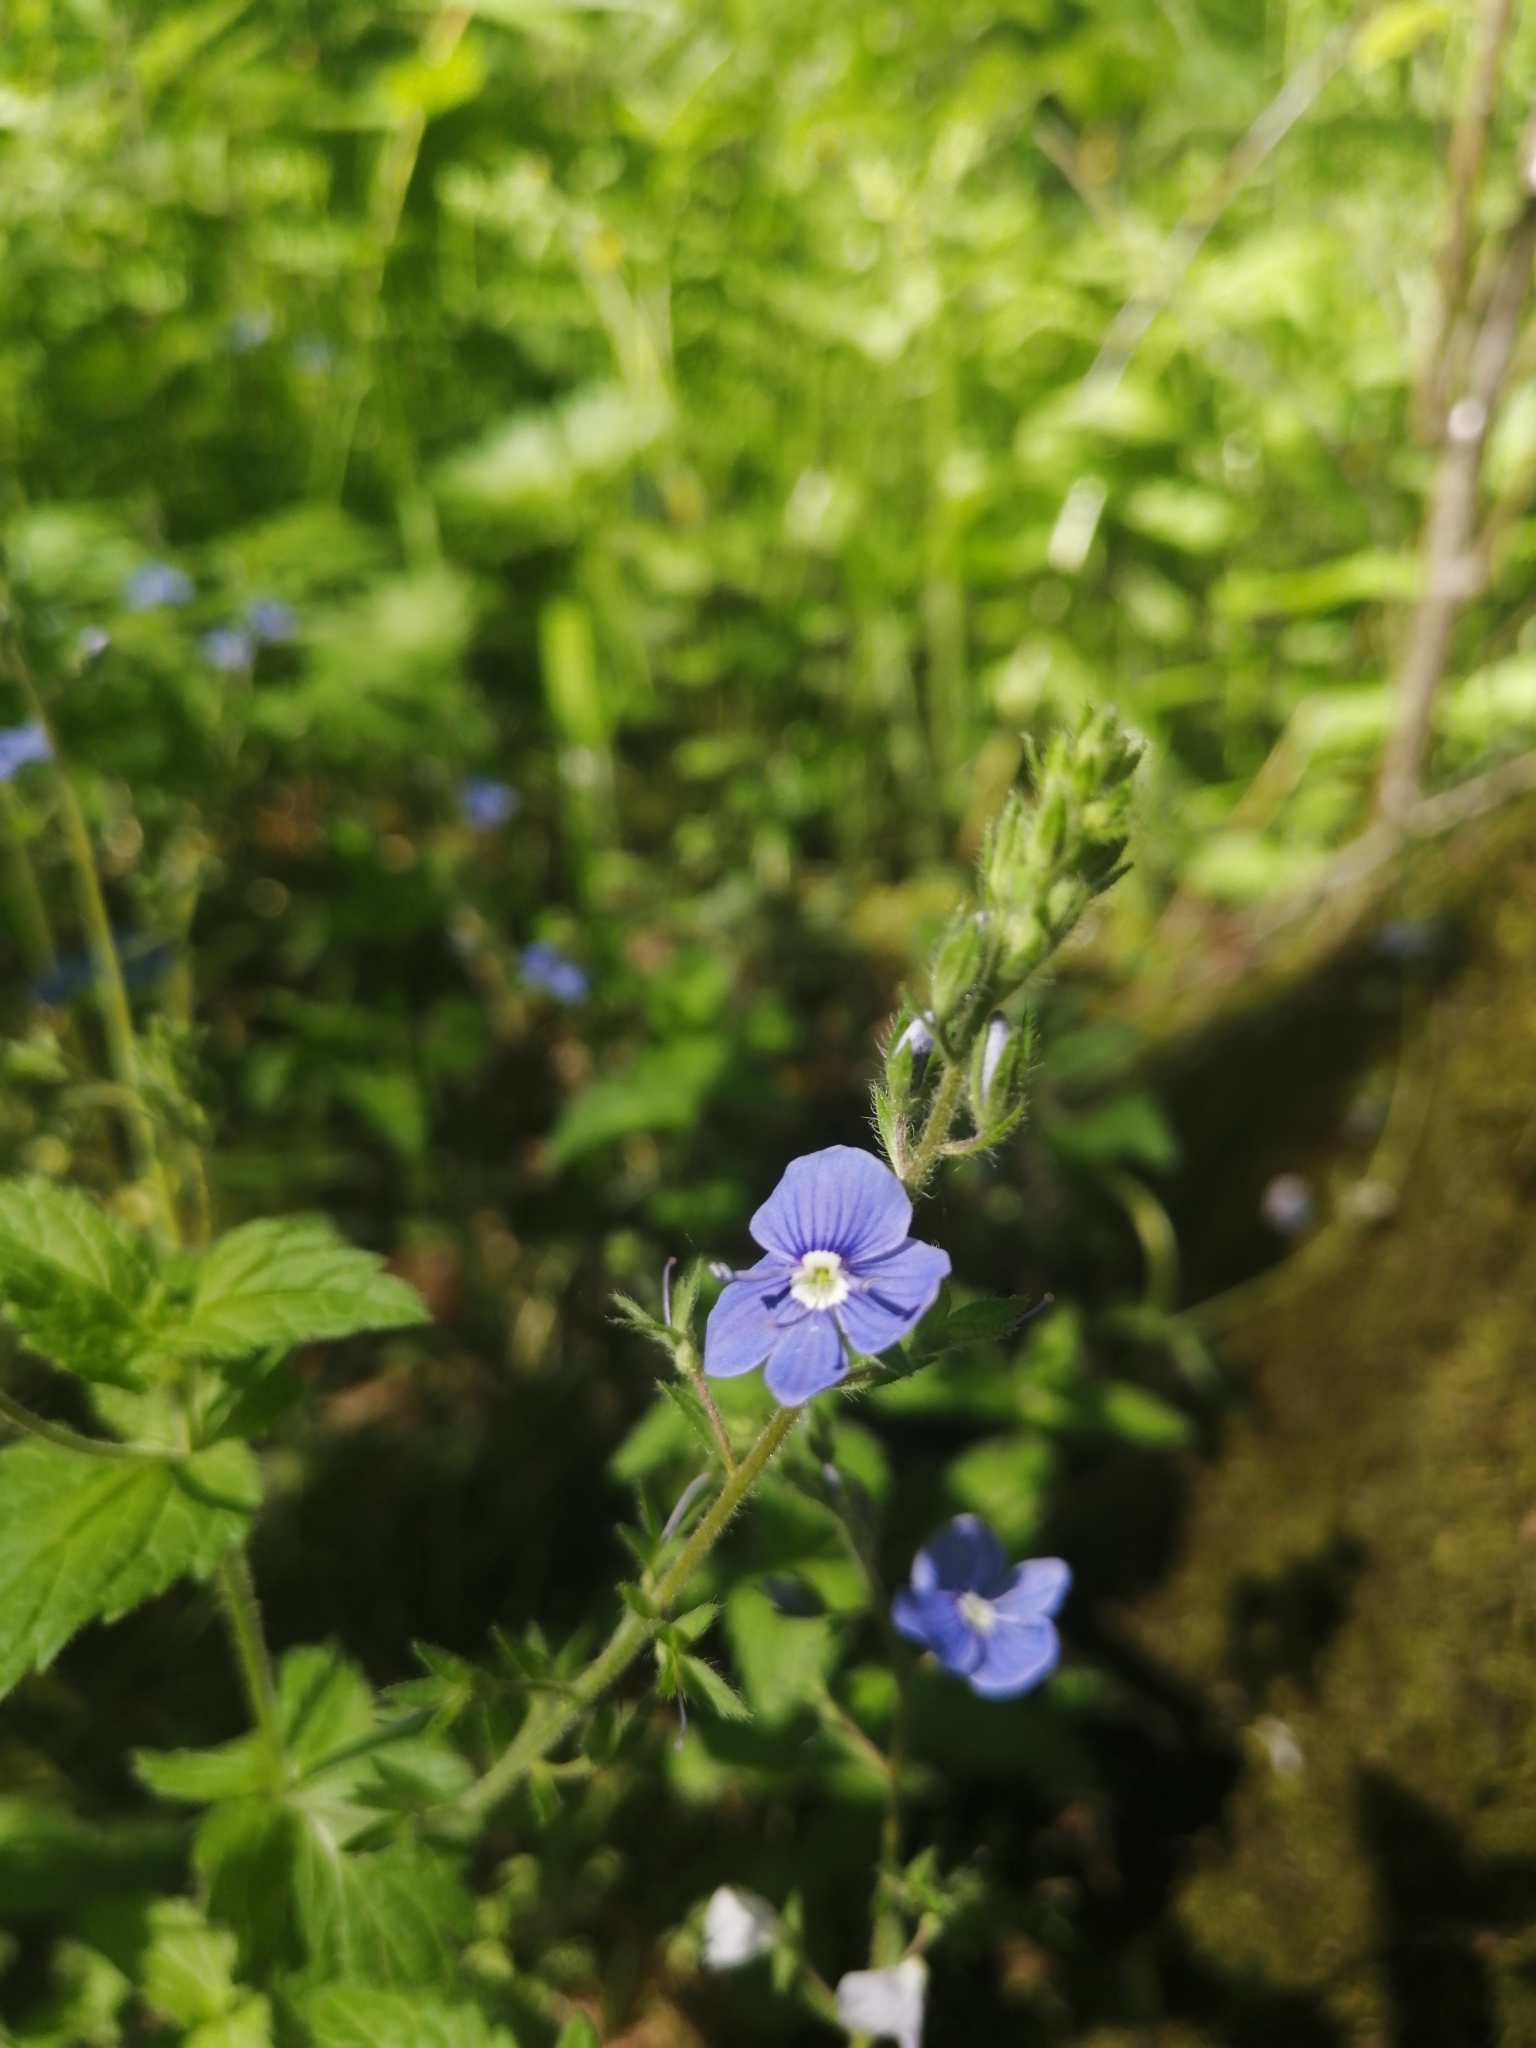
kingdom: Plantae
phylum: Tracheophyta
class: Magnoliopsida
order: Lamiales
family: Plantaginaceae
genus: Veronica
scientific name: Veronica chamaedrys
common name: Germander speedwell
